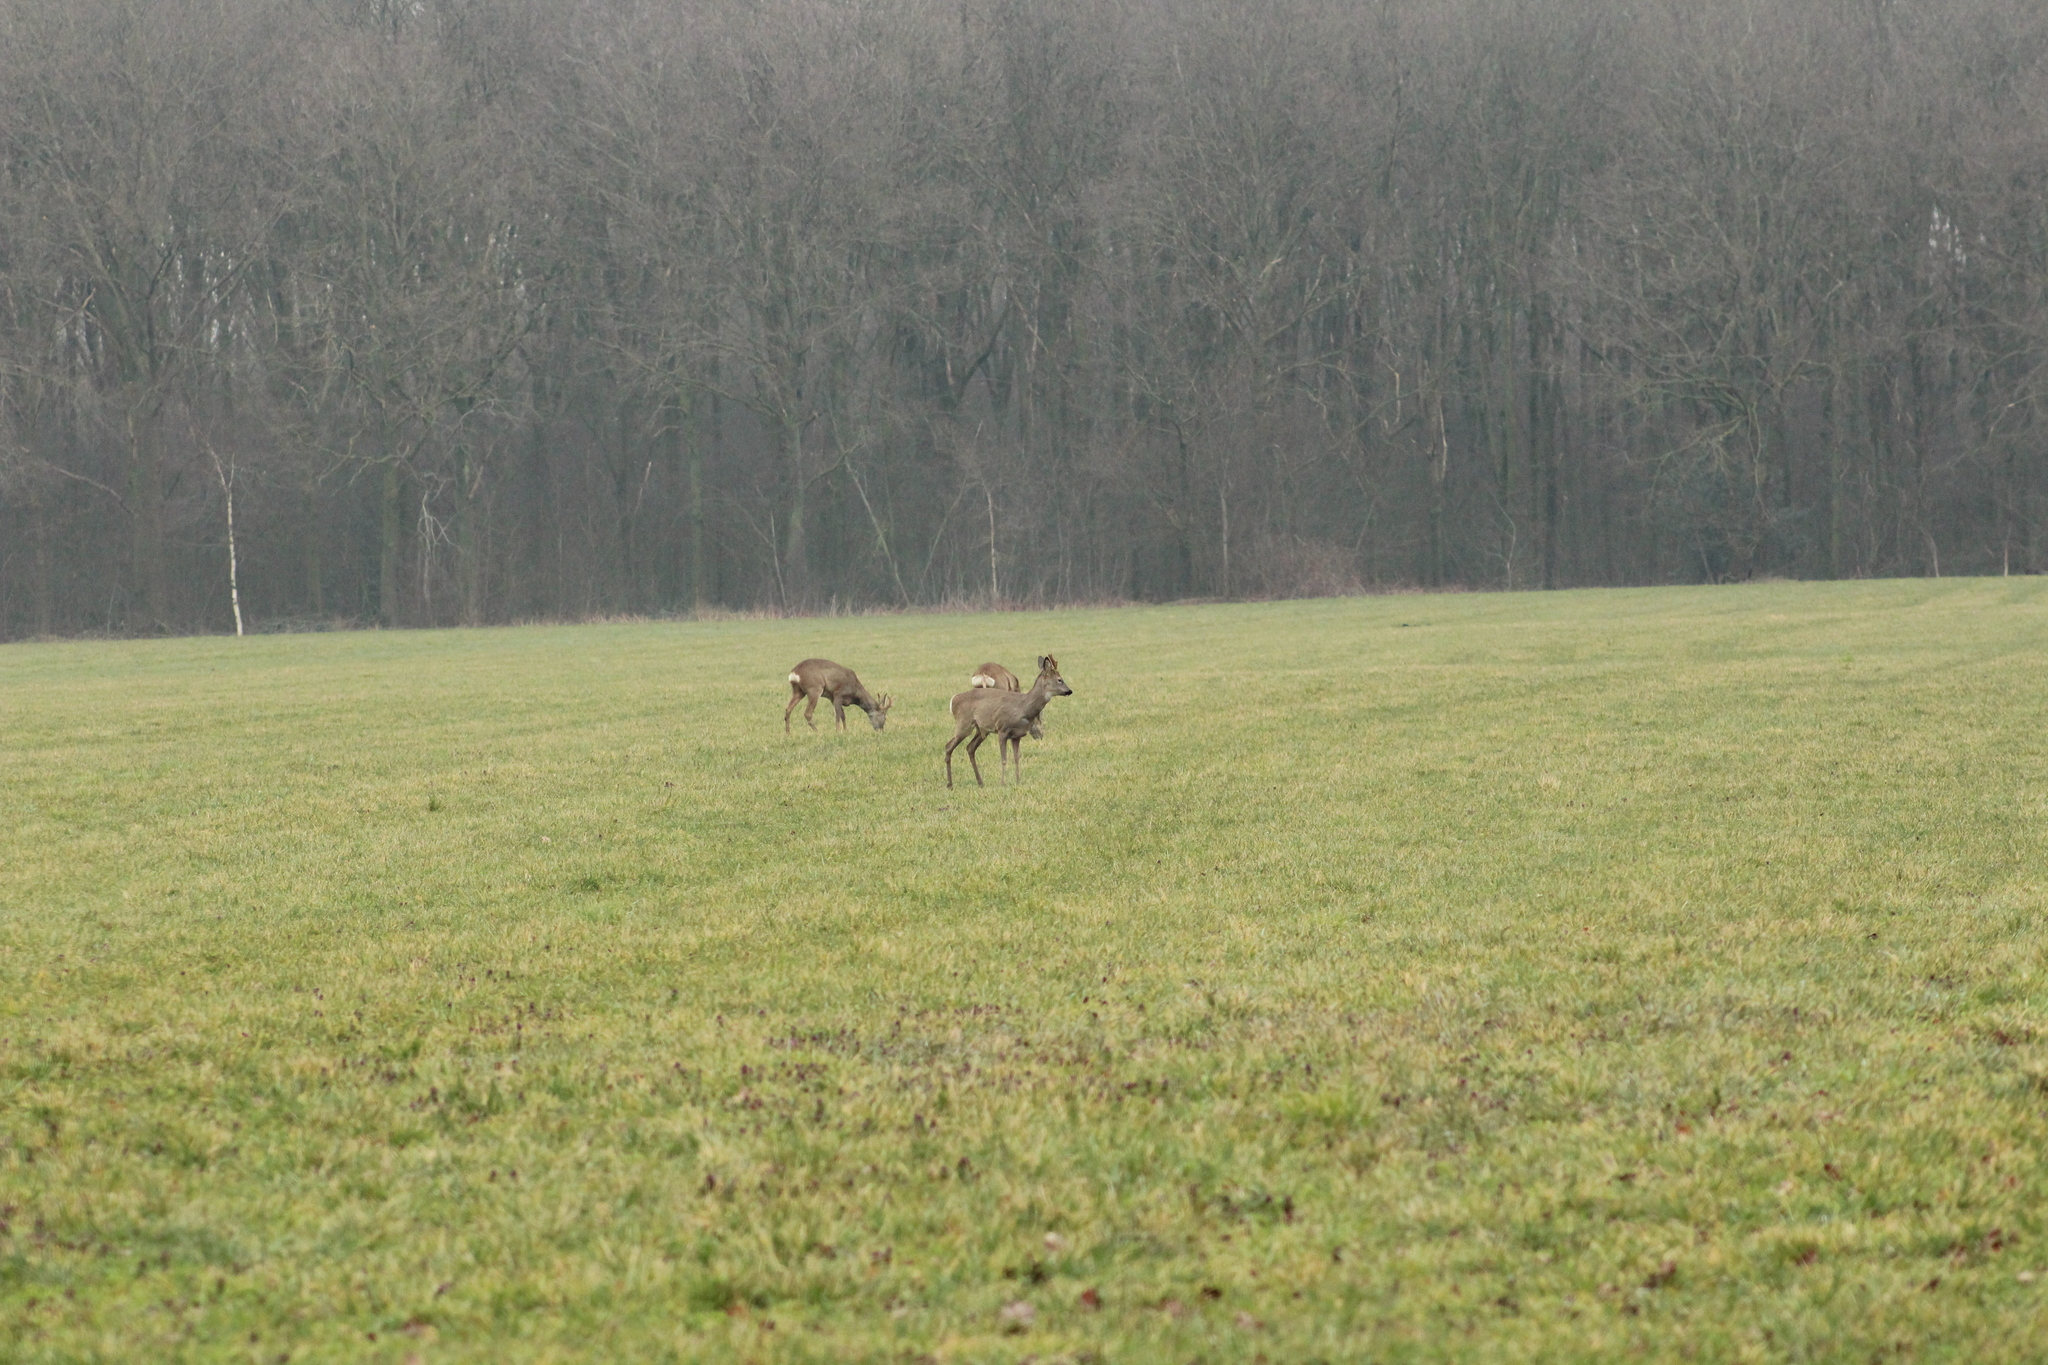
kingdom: Animalia
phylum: Chordata
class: Mammalia
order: Artiodactyla
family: Cervidae
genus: Capreolus
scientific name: Capreolus capreolus
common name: Western roe deer
